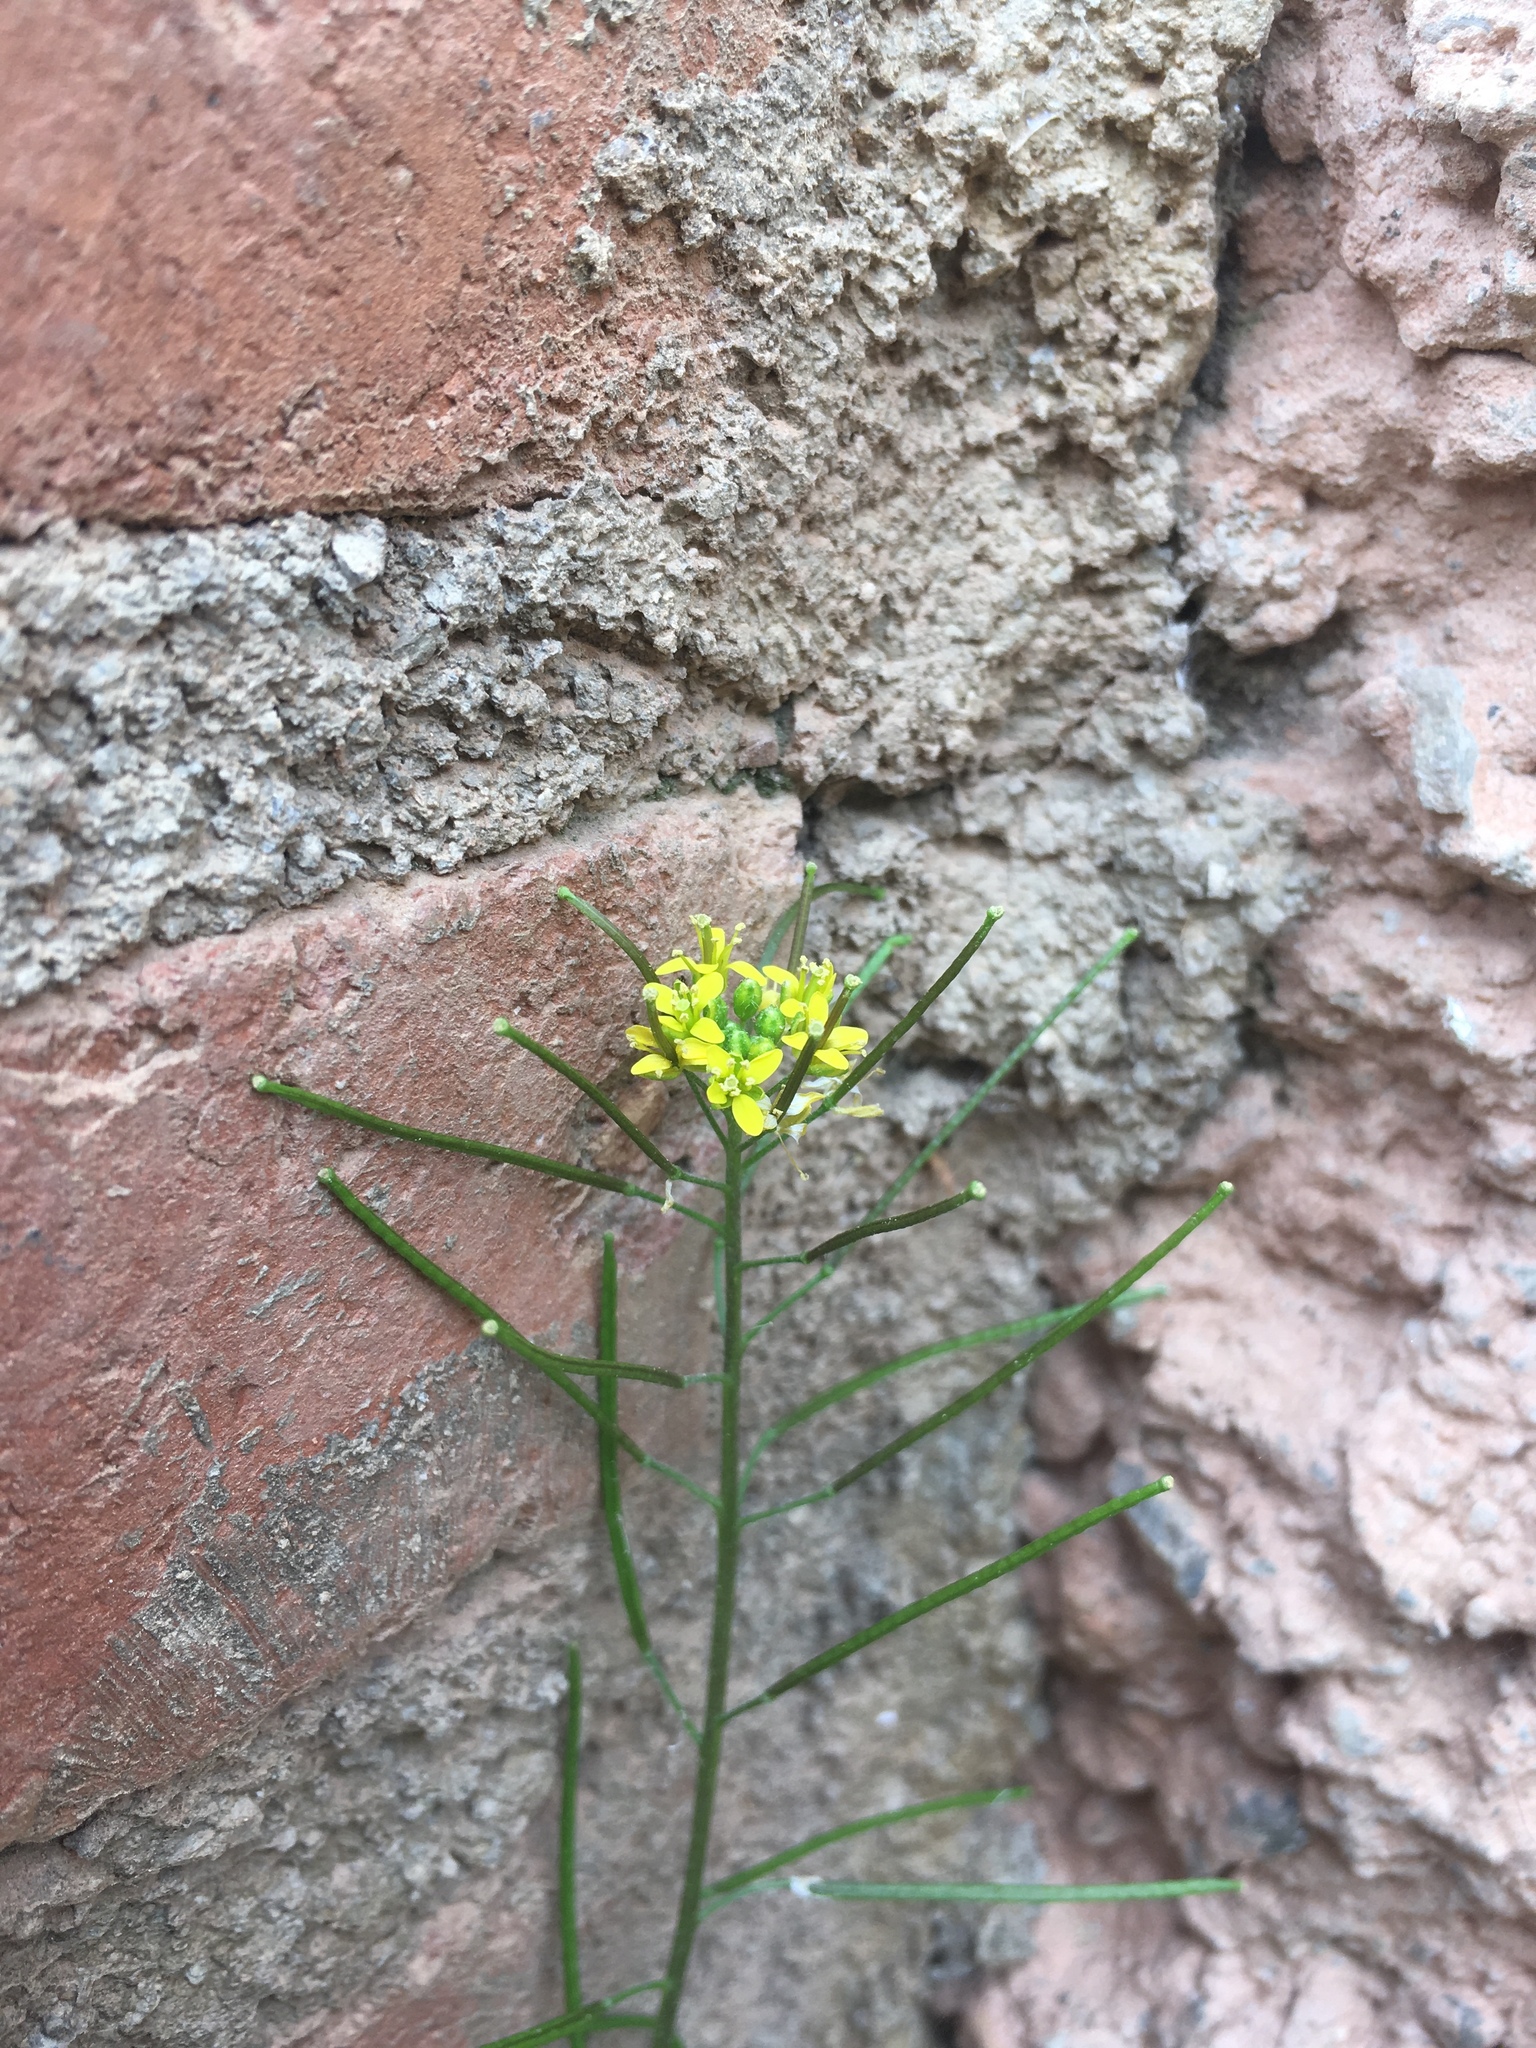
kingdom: Plantae
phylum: Tracheophyta
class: Magnoliopsida
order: Brassicales
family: Brassicaceae
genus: Sisymbrium
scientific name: Sisymbrium irio
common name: London rocket
